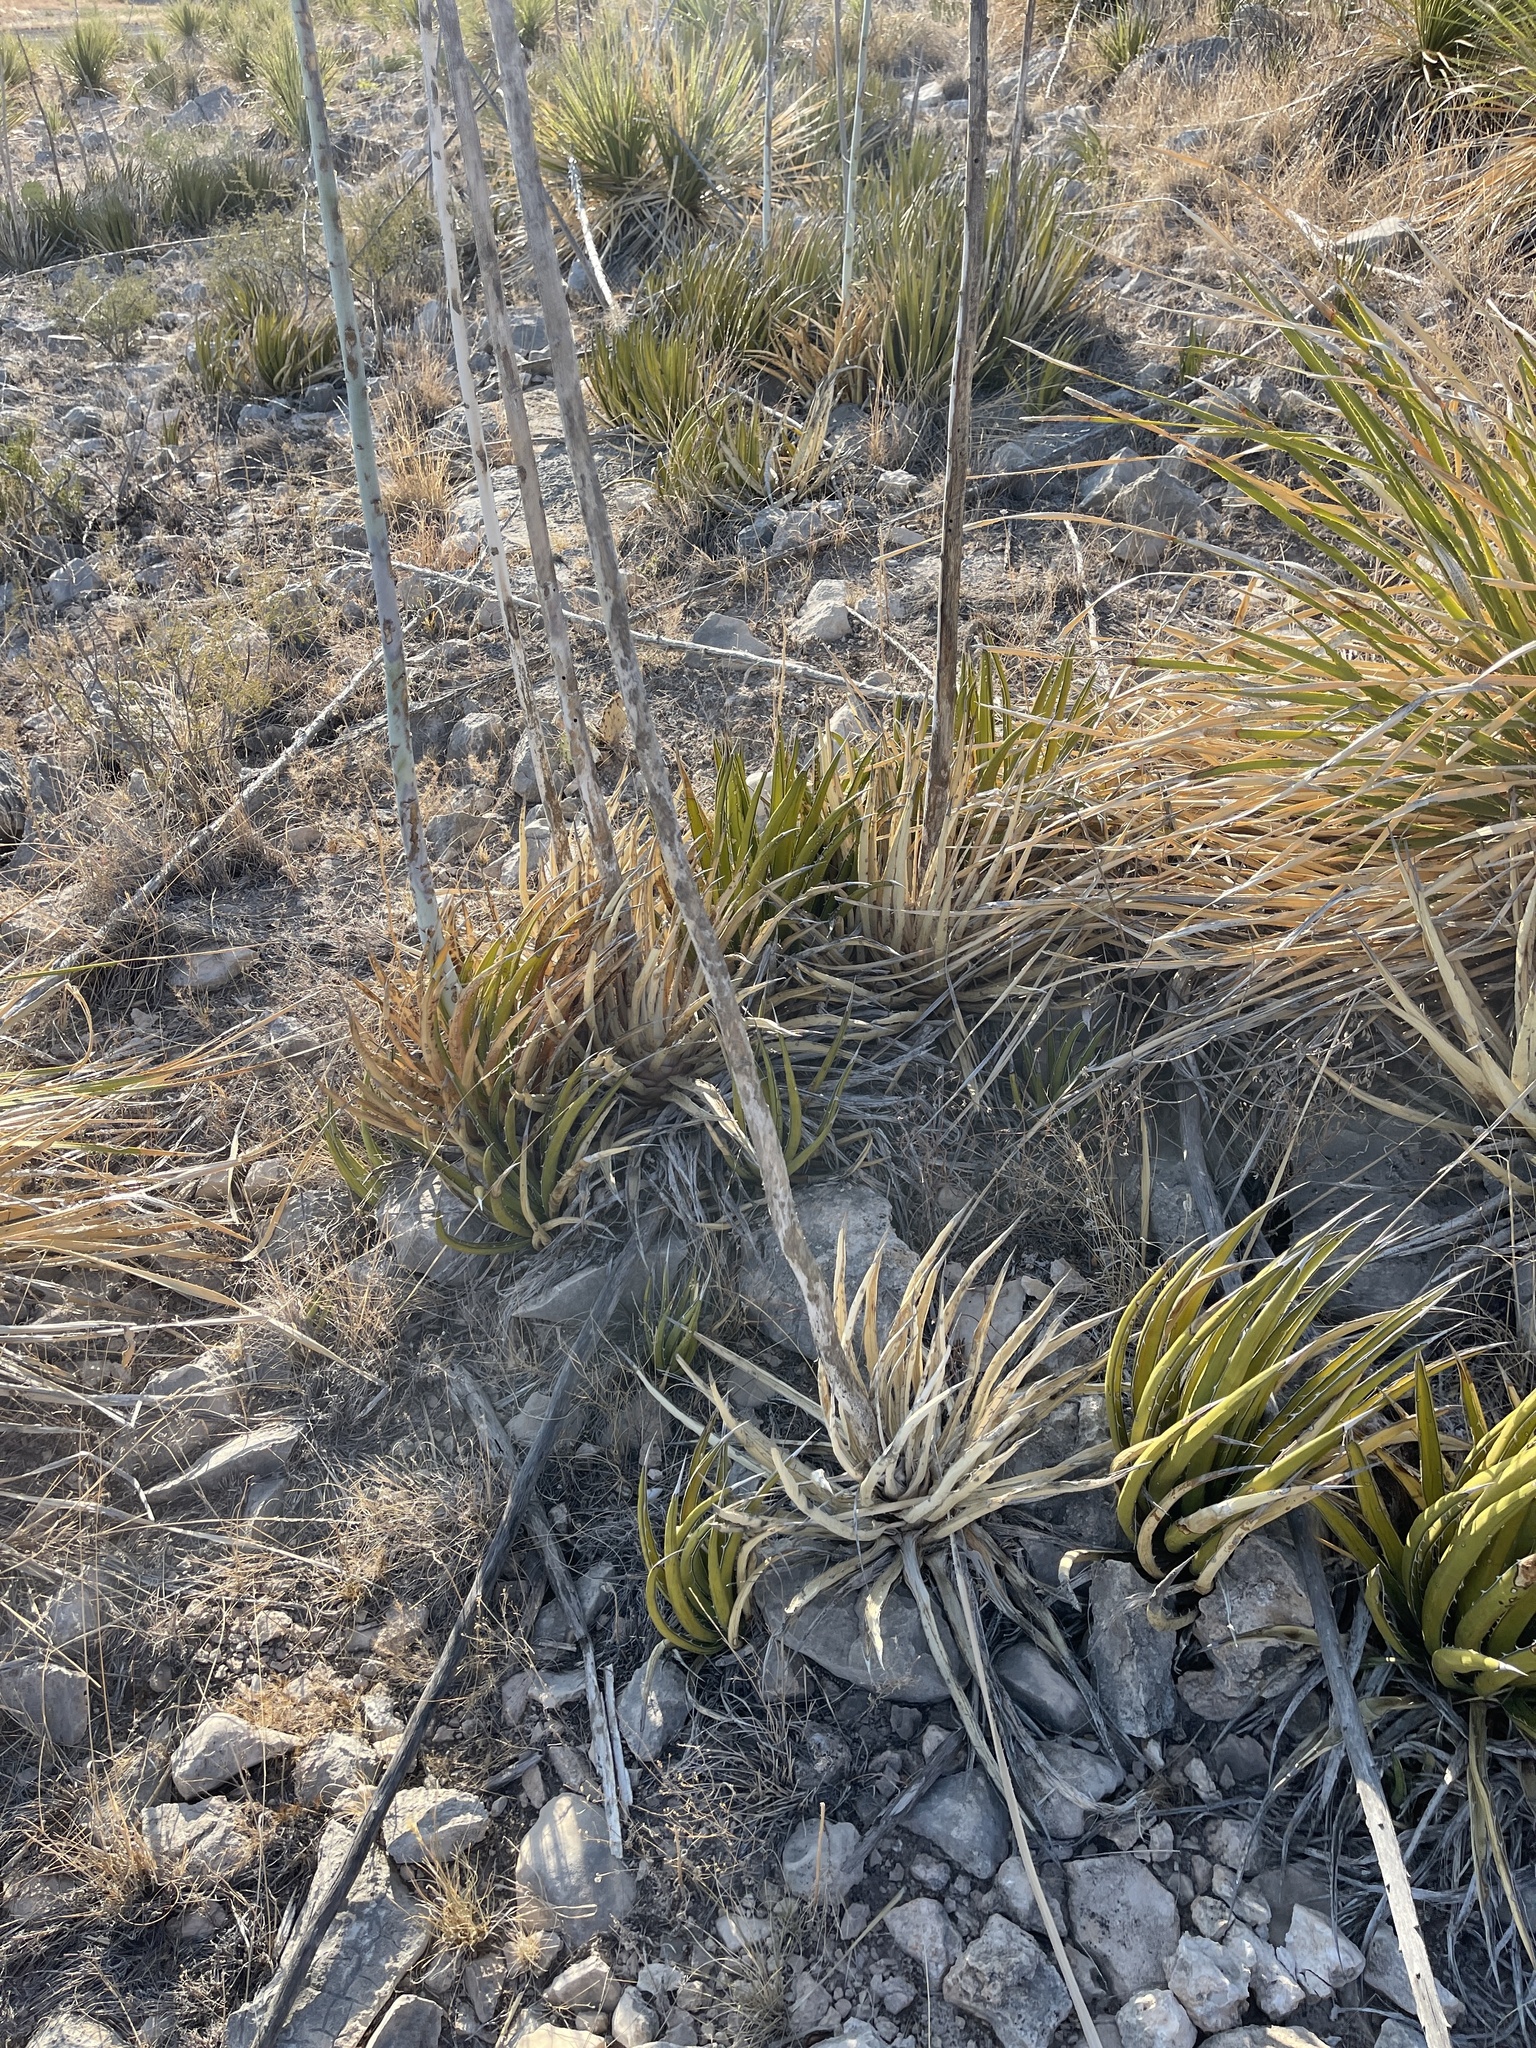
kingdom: Plantae
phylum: Tracheophyta
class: Liliopsida
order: Asparagales
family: Asparagaceae
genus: Agave
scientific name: Agave lechuguilla
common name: Lecheguilla agave
